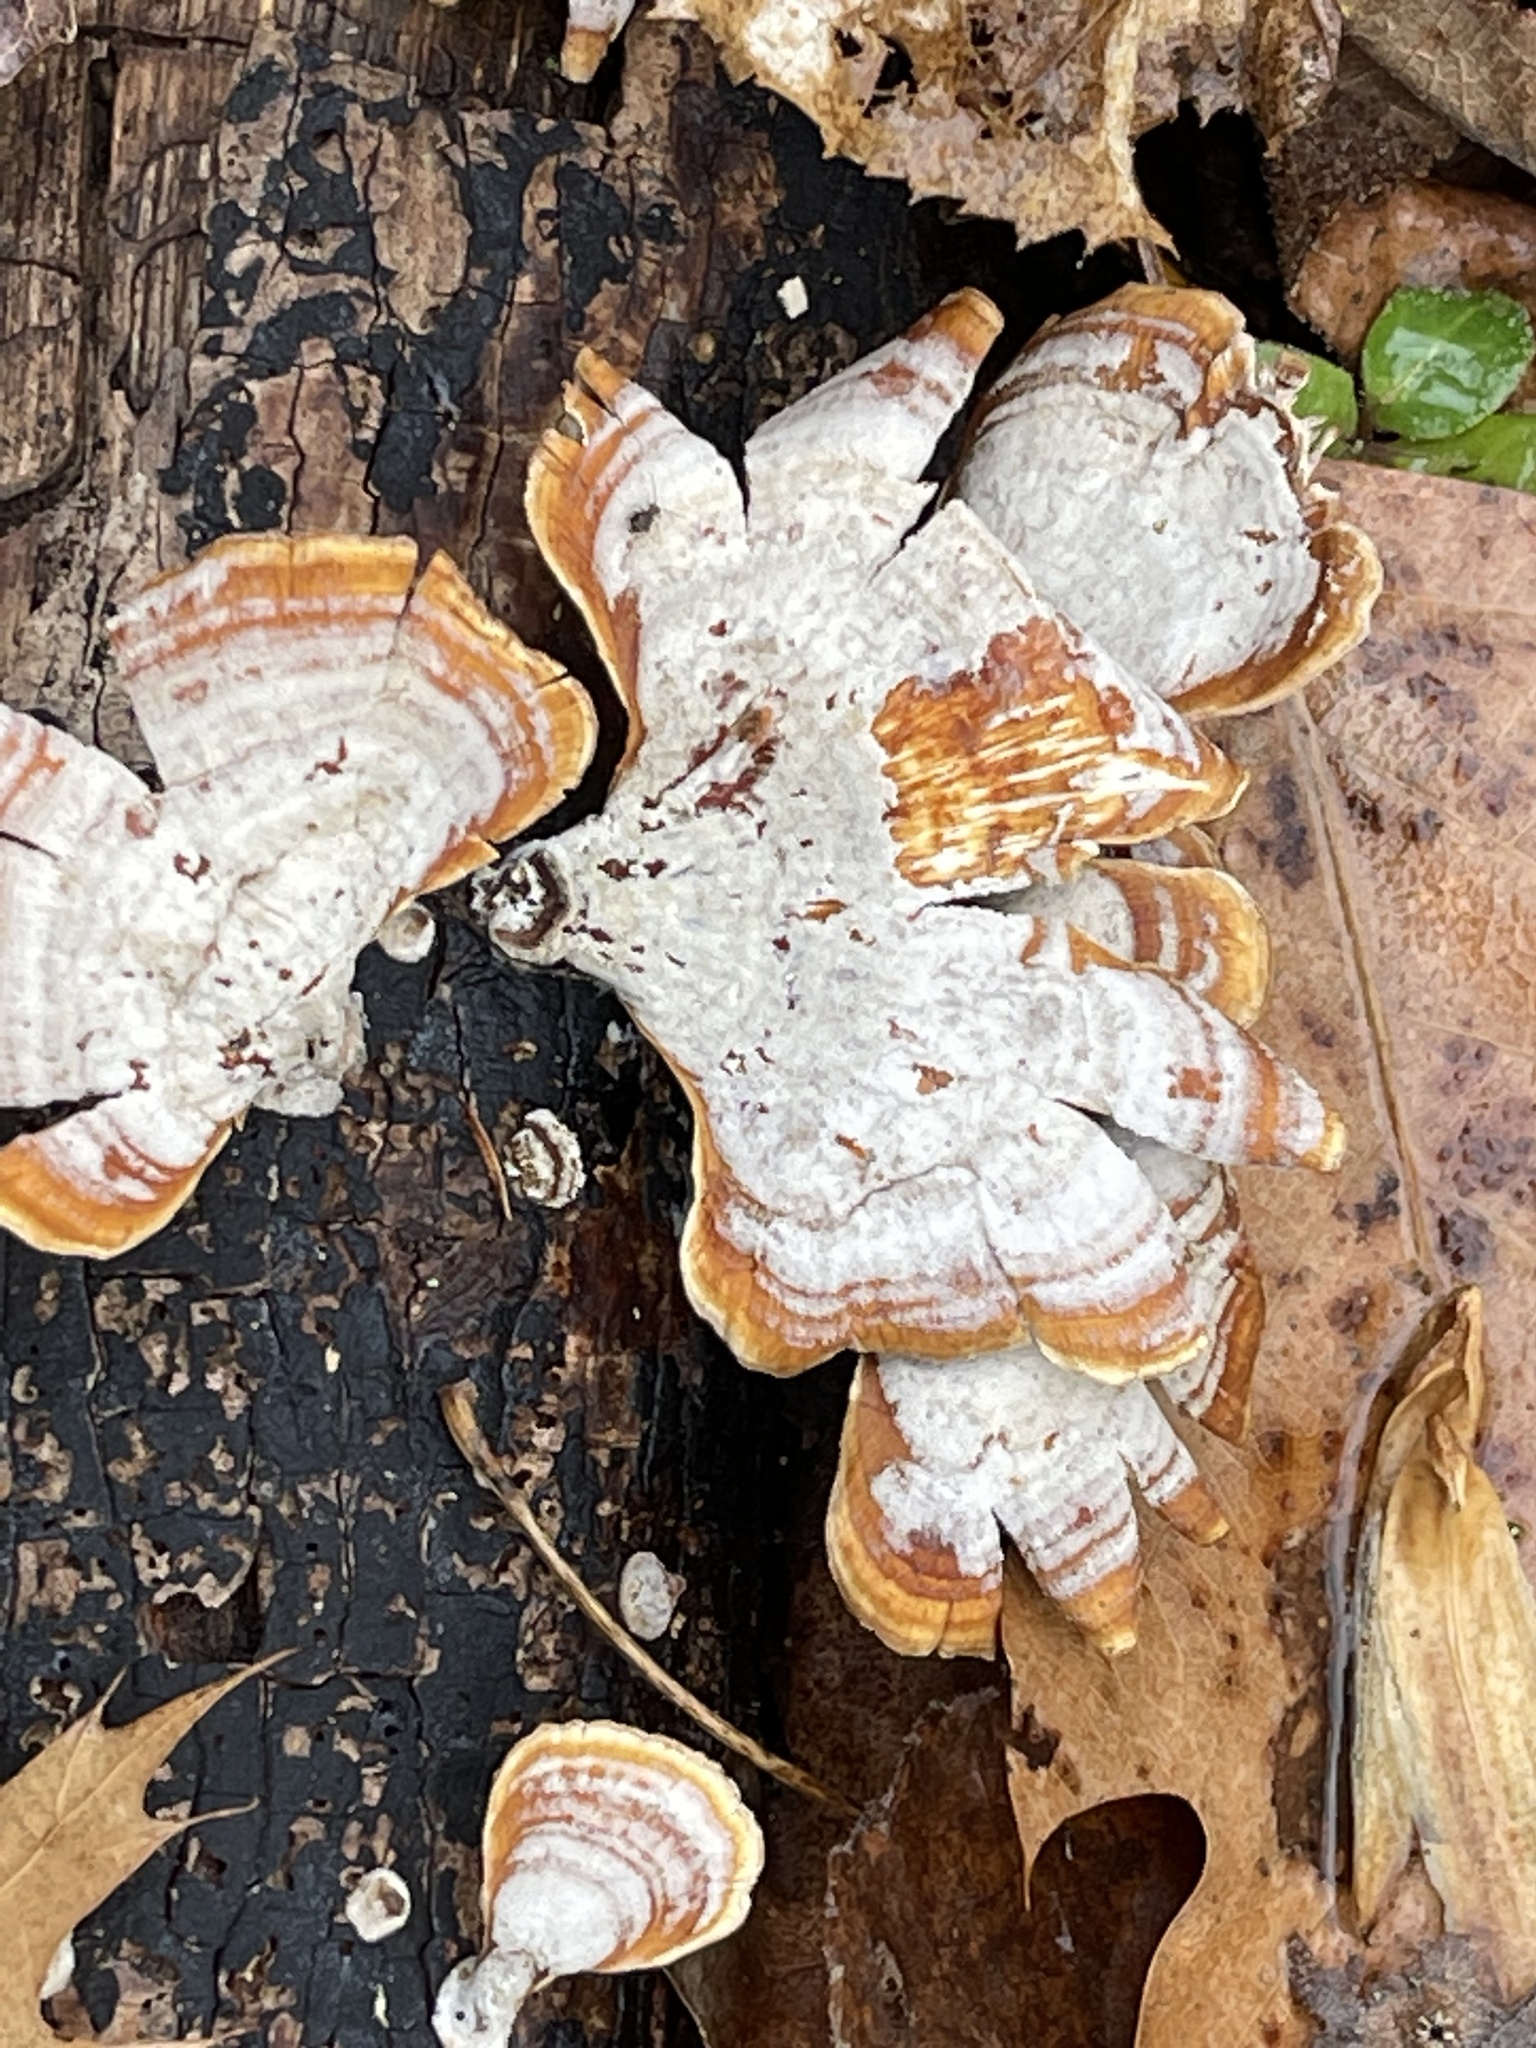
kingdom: Fungi
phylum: Basidiomycota
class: Agaricomycetes
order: Russulales
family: Stereaceae
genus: Stereum
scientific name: Stereum lobatum
